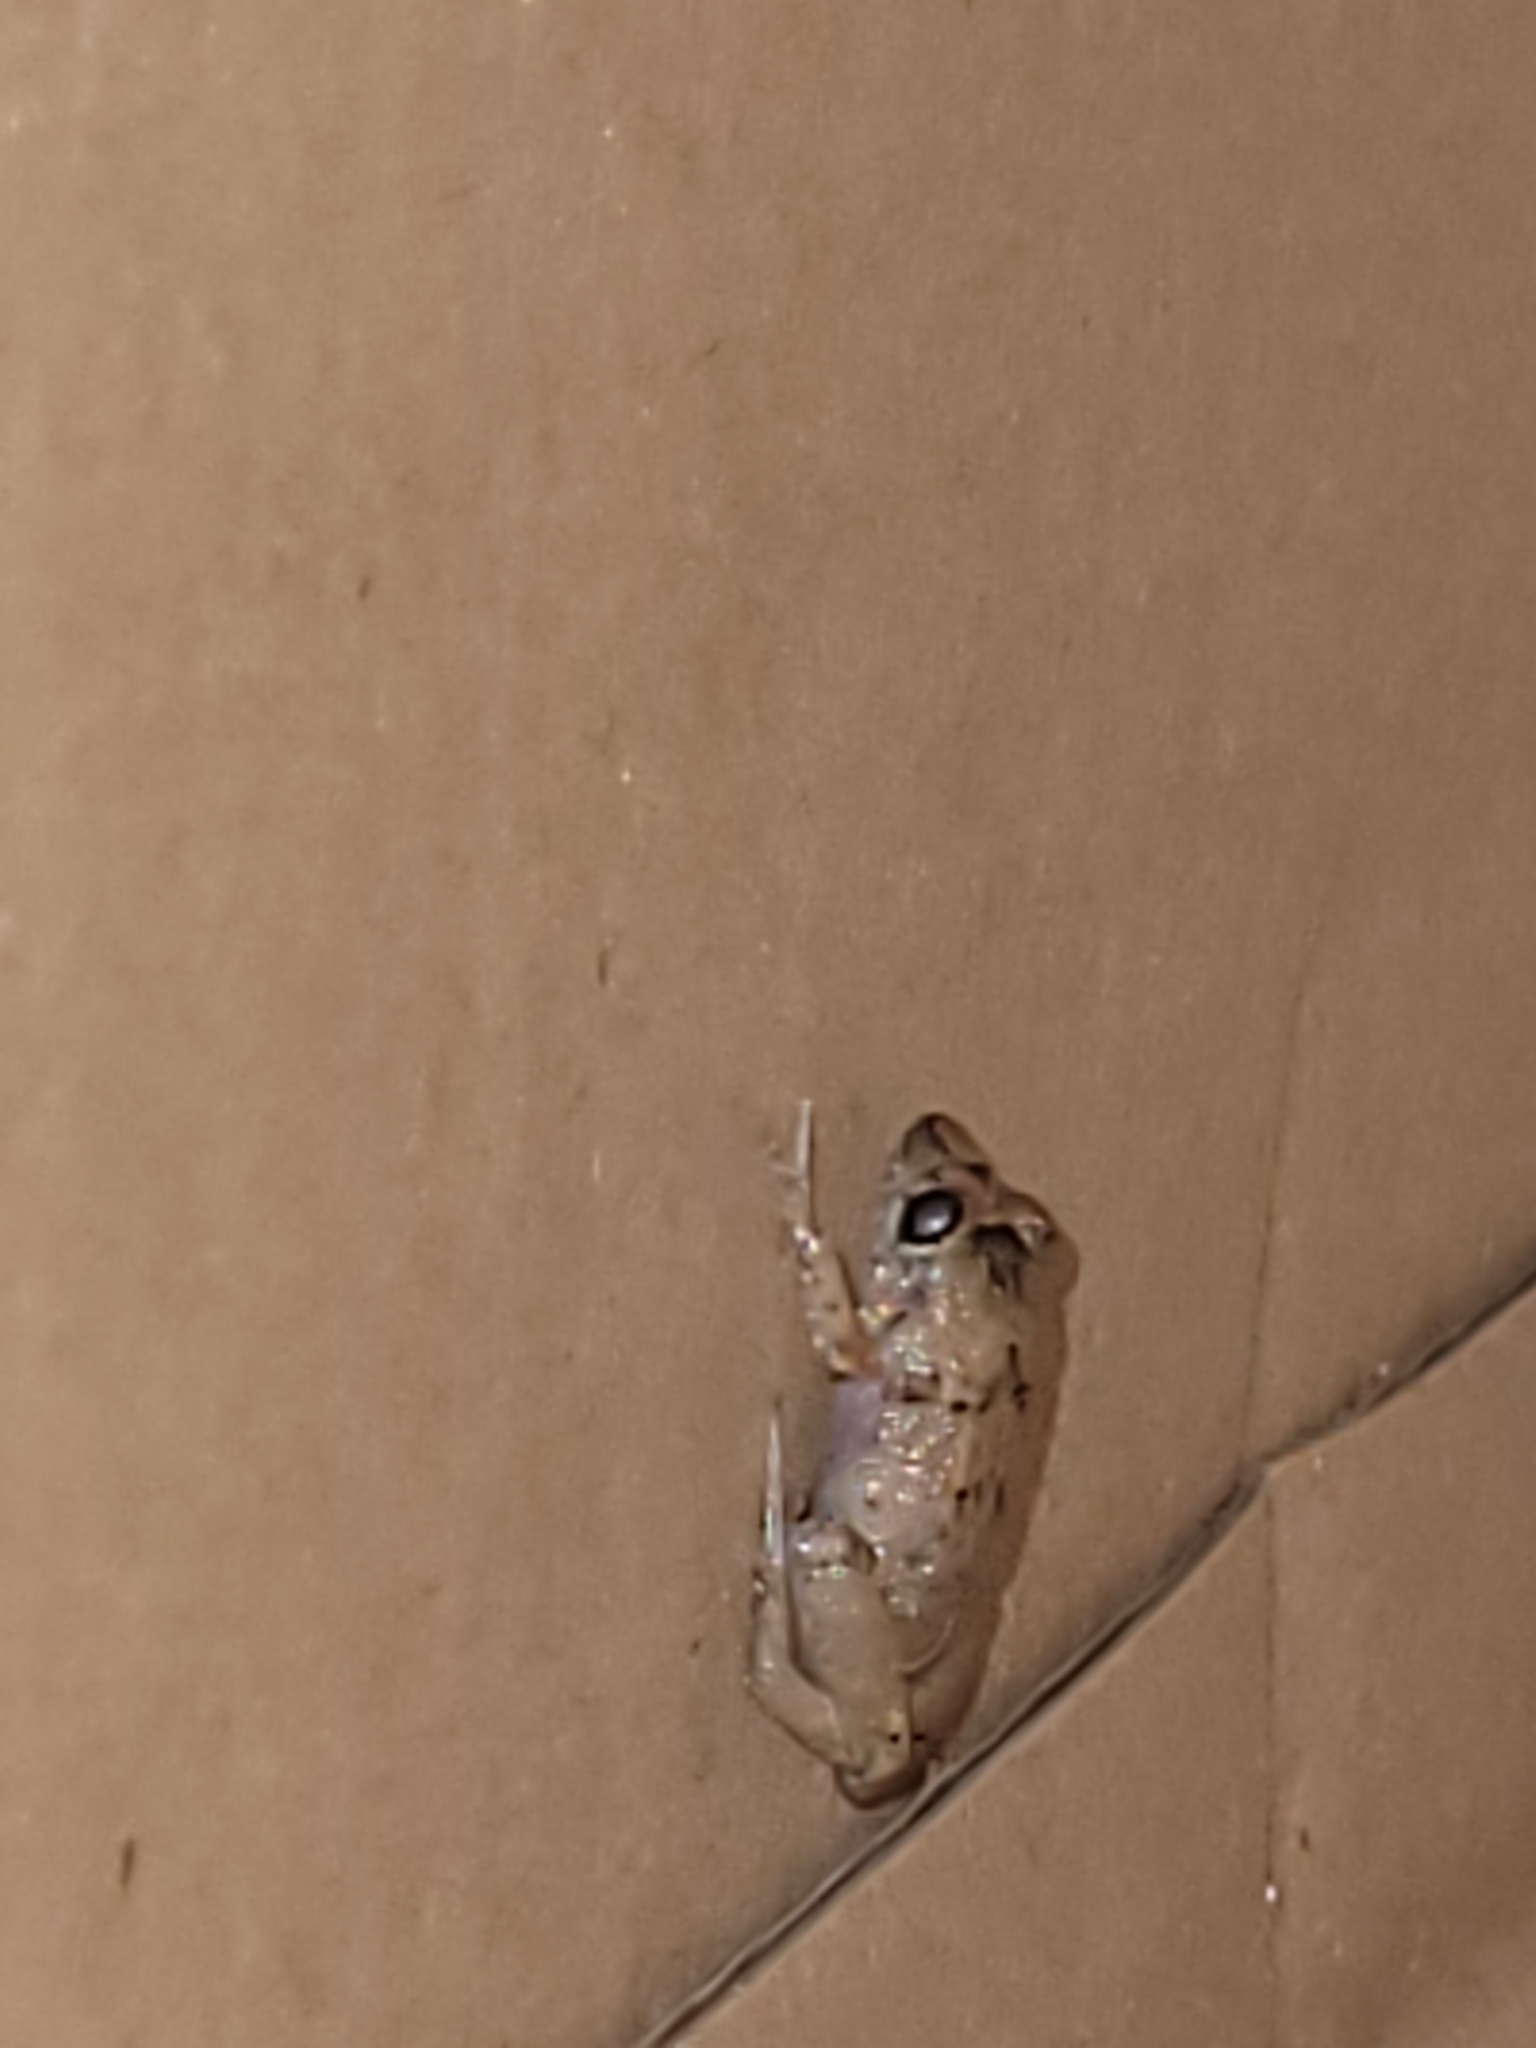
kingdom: Animalia
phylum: Chordata
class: Amphibia
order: Anura
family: Eleutherodactylidae
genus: Eleutherodactylus
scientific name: Eleutherodactylus planirostris
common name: Greenhouse frog
